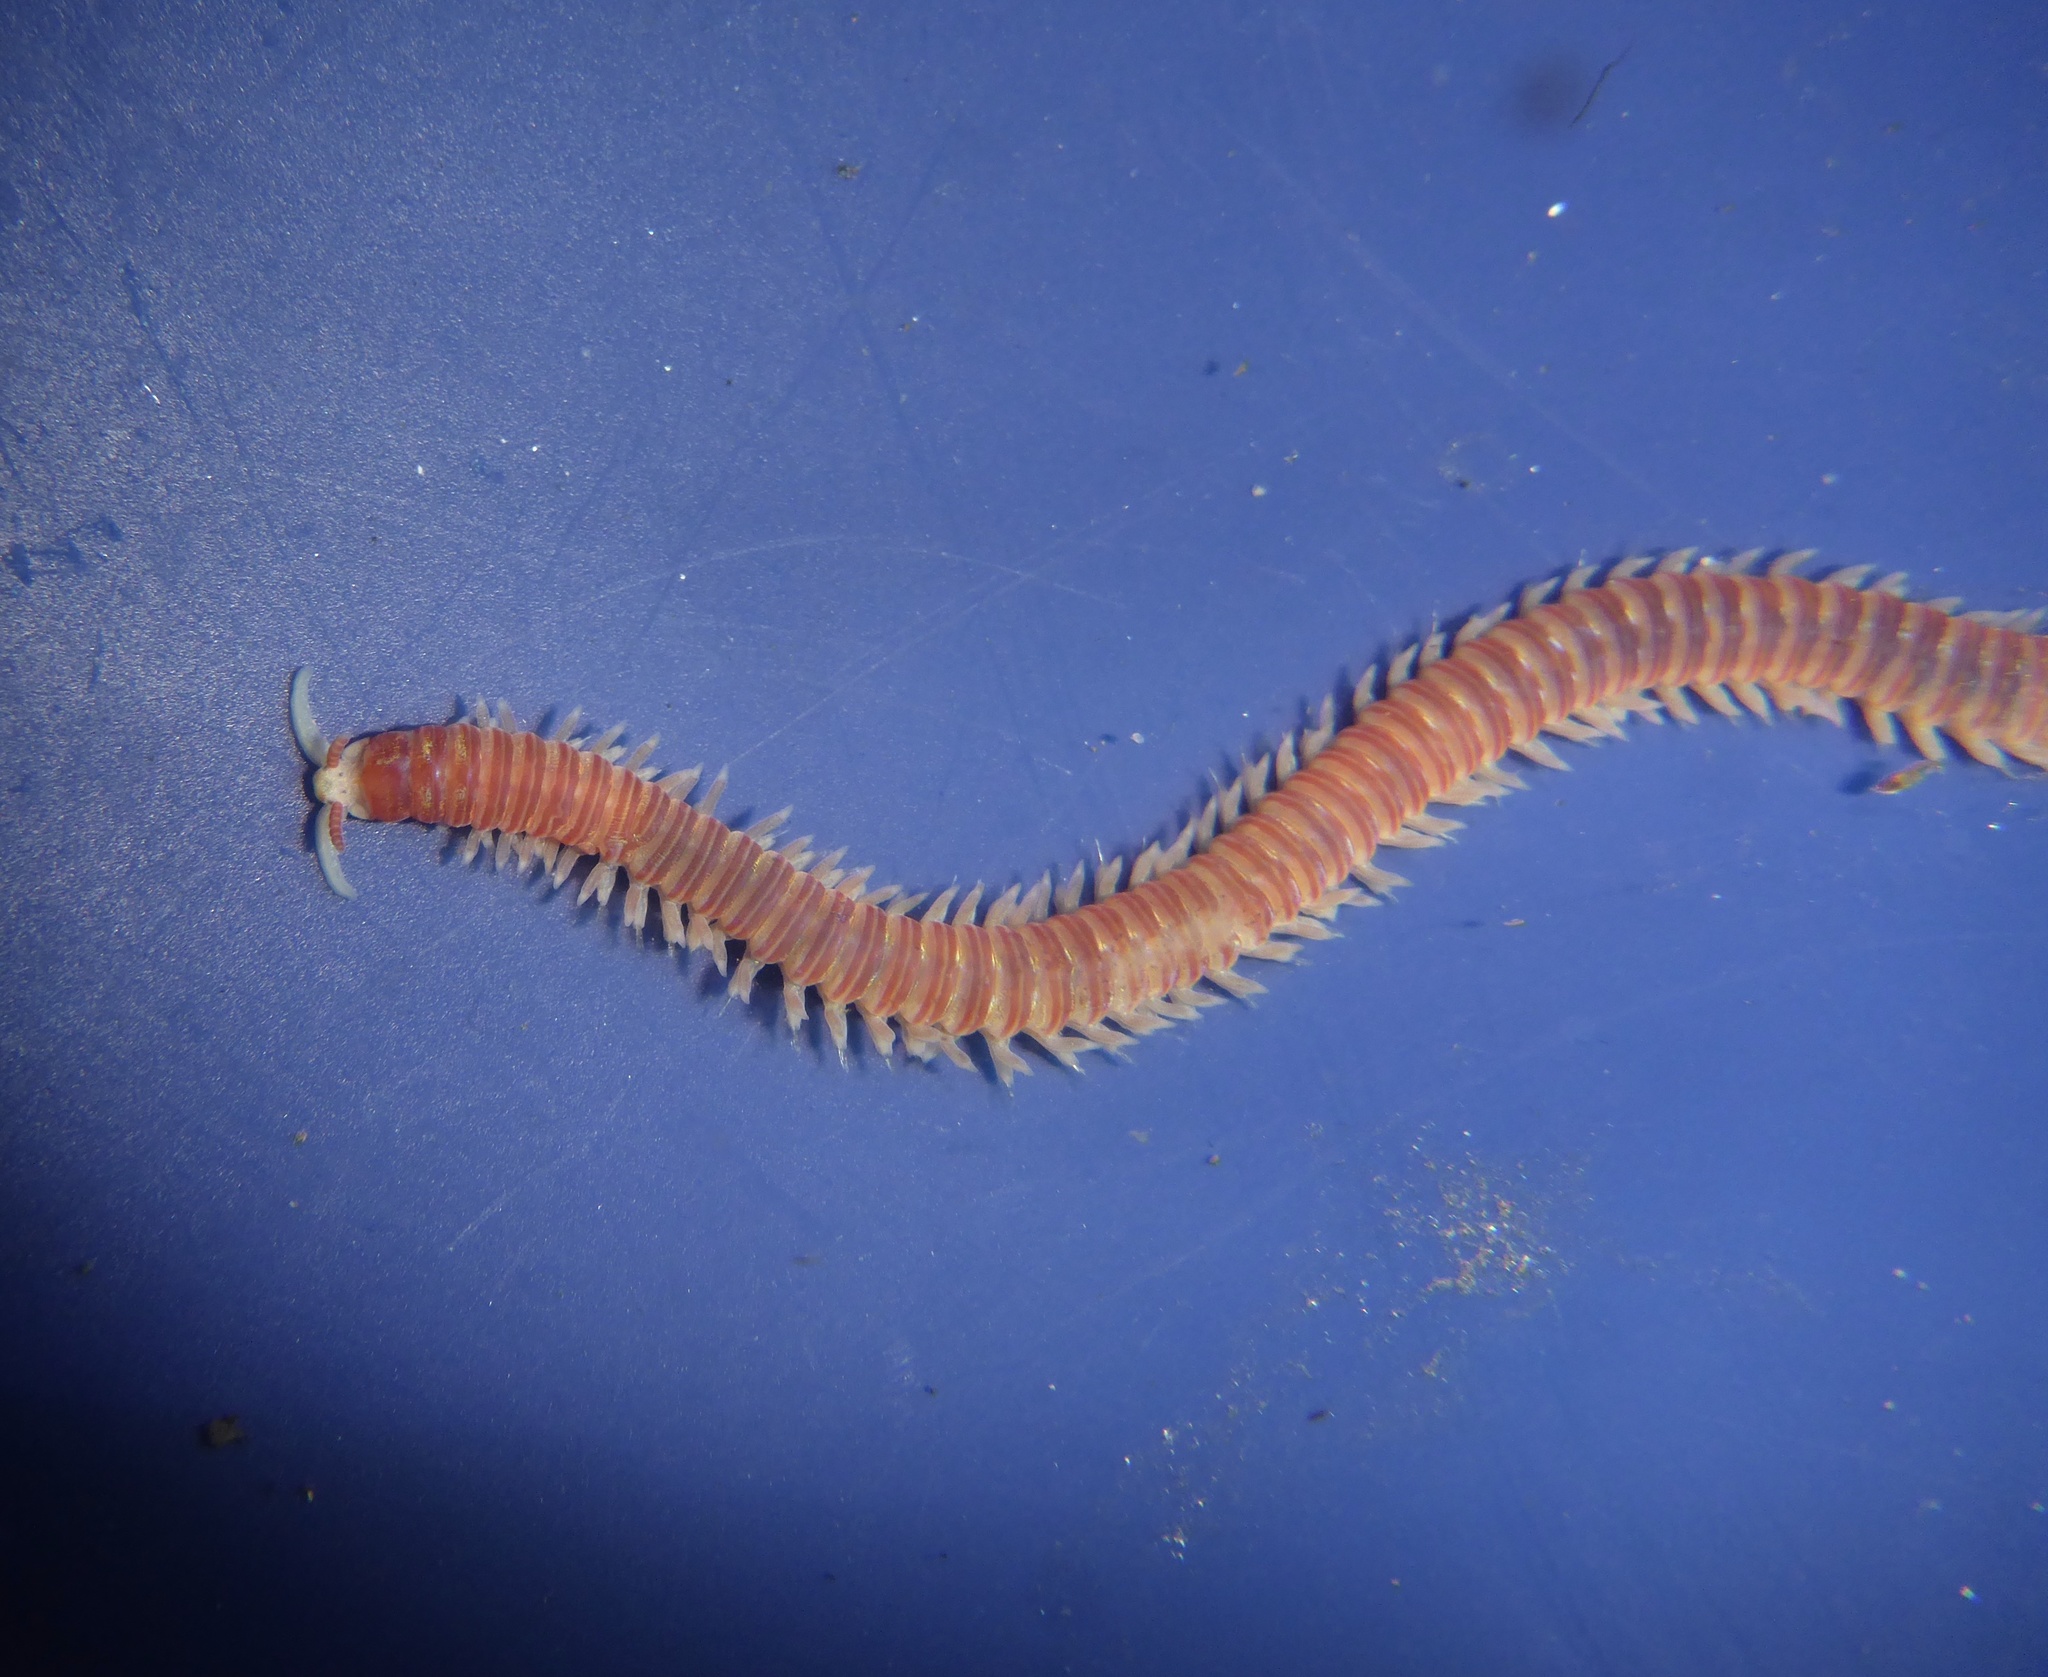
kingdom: Animalia
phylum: Annelida
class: Polychaeta
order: Eunicida
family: Dorvilleidae
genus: Dorvillea
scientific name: Dorvillea moniloceras
